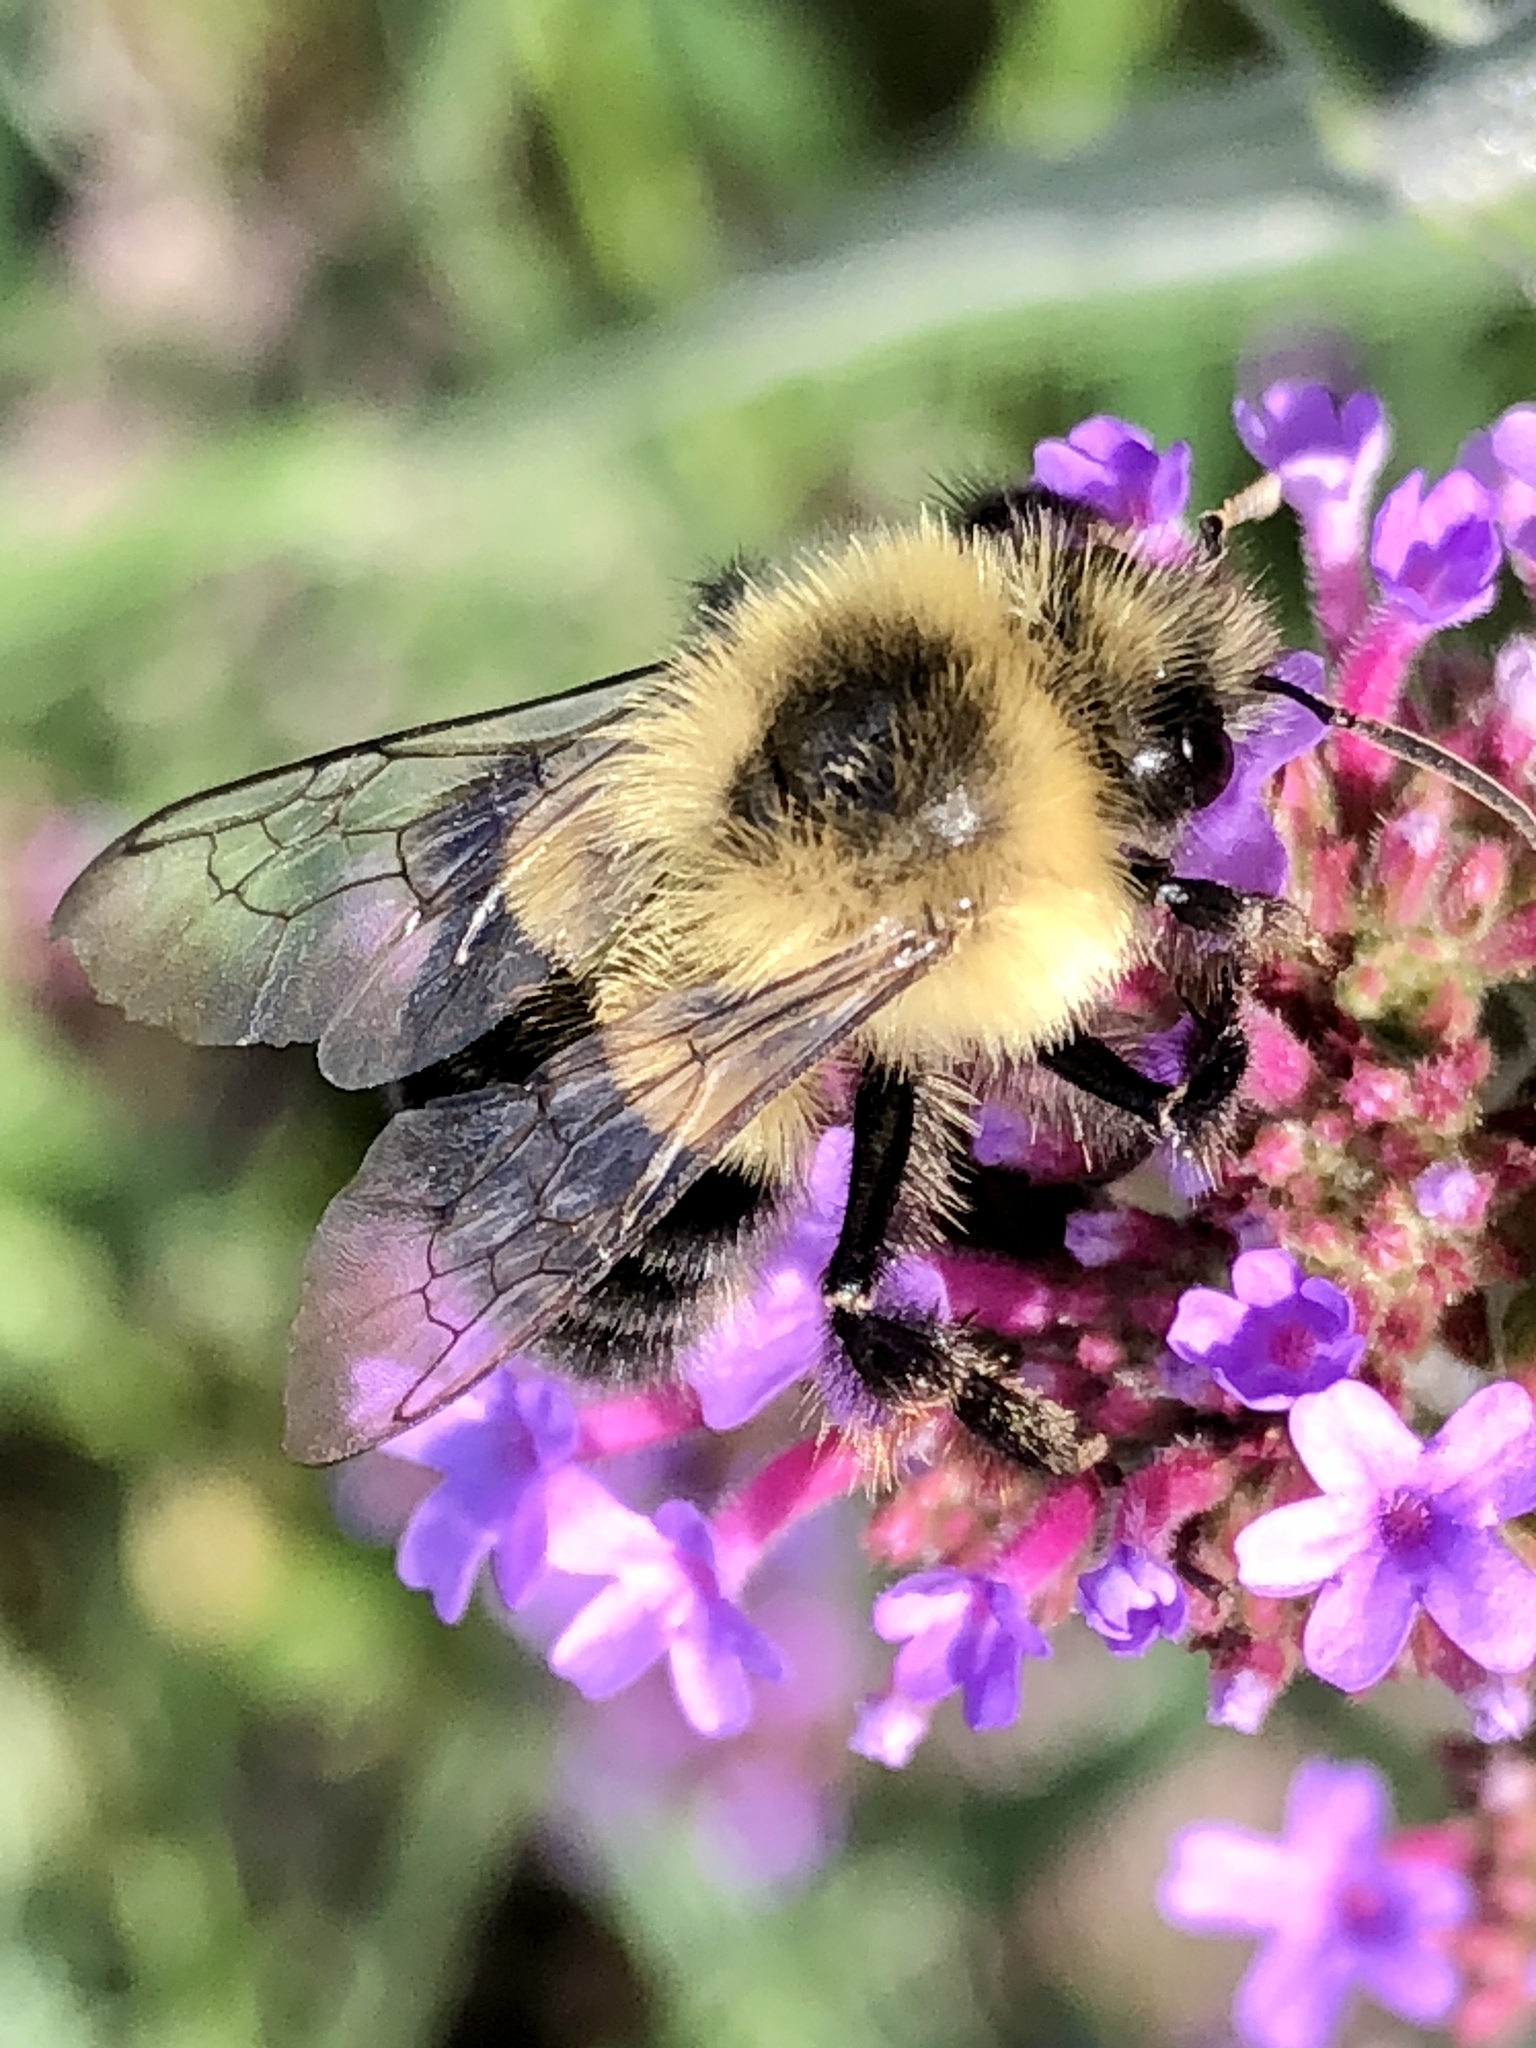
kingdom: Animalia
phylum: Arthropoda
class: Insecta
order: Hymenoptera
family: Apidae
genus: Bombus
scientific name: Bombus impatiens
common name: Common eastern bumble bee
